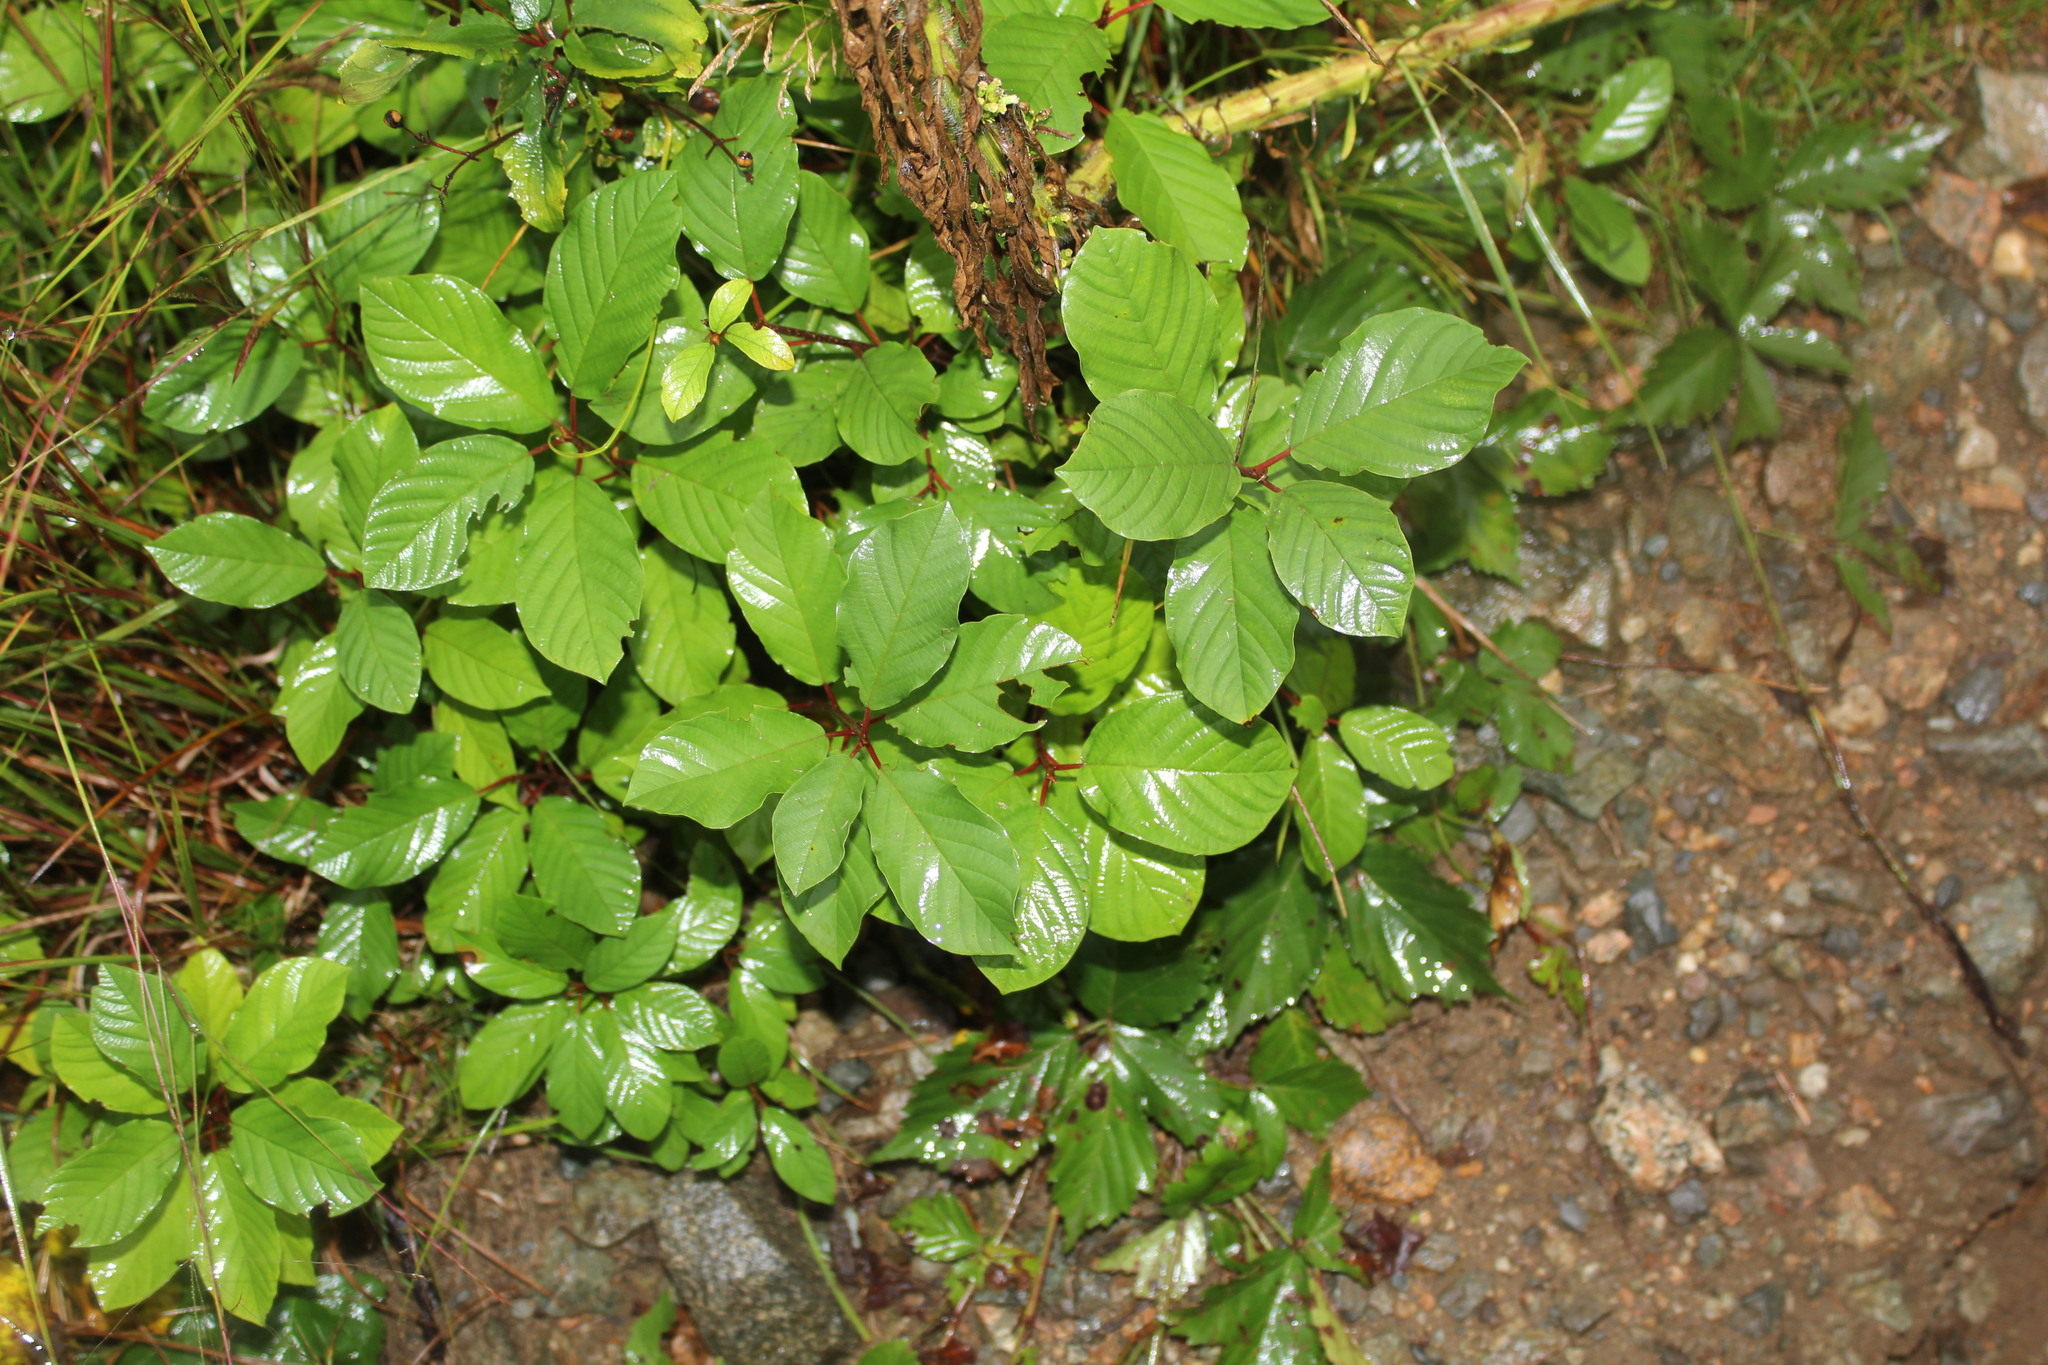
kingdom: Plantae
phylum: Tracheophyta
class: Magnoliopsida
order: Rosales
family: Rhamnaceae
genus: Frangula
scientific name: Frangula alnus
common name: Alder buckthorn
